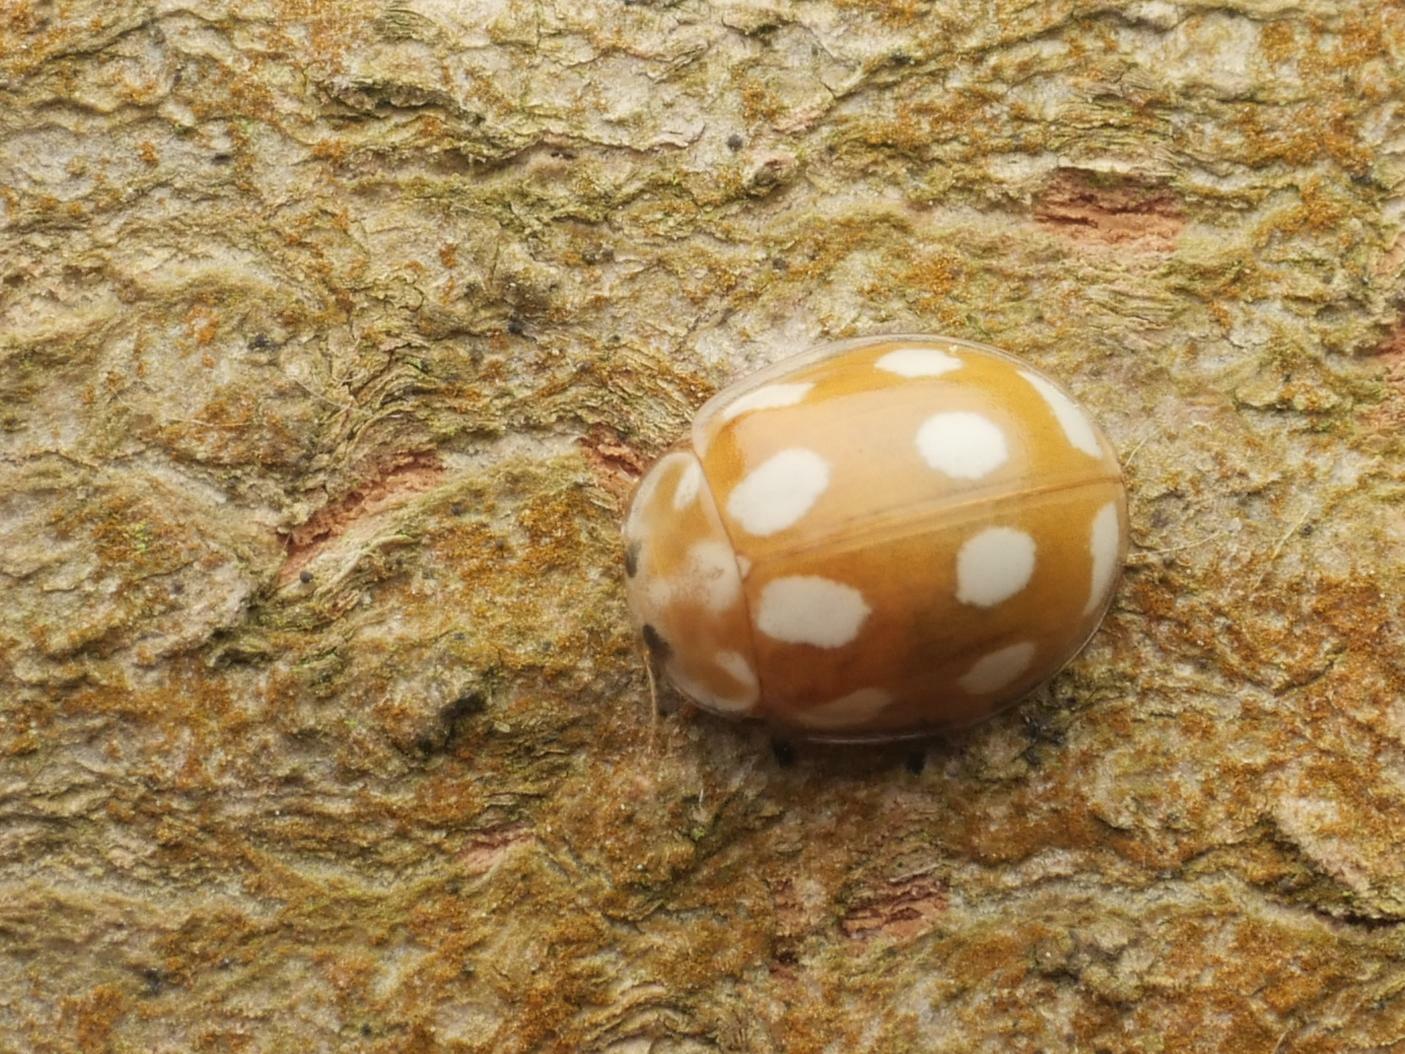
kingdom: Animalia
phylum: Arthropoda
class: Insecta
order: Coleoptera
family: Coccinellidae
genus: Calvia
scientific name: Calvia decemguttata
